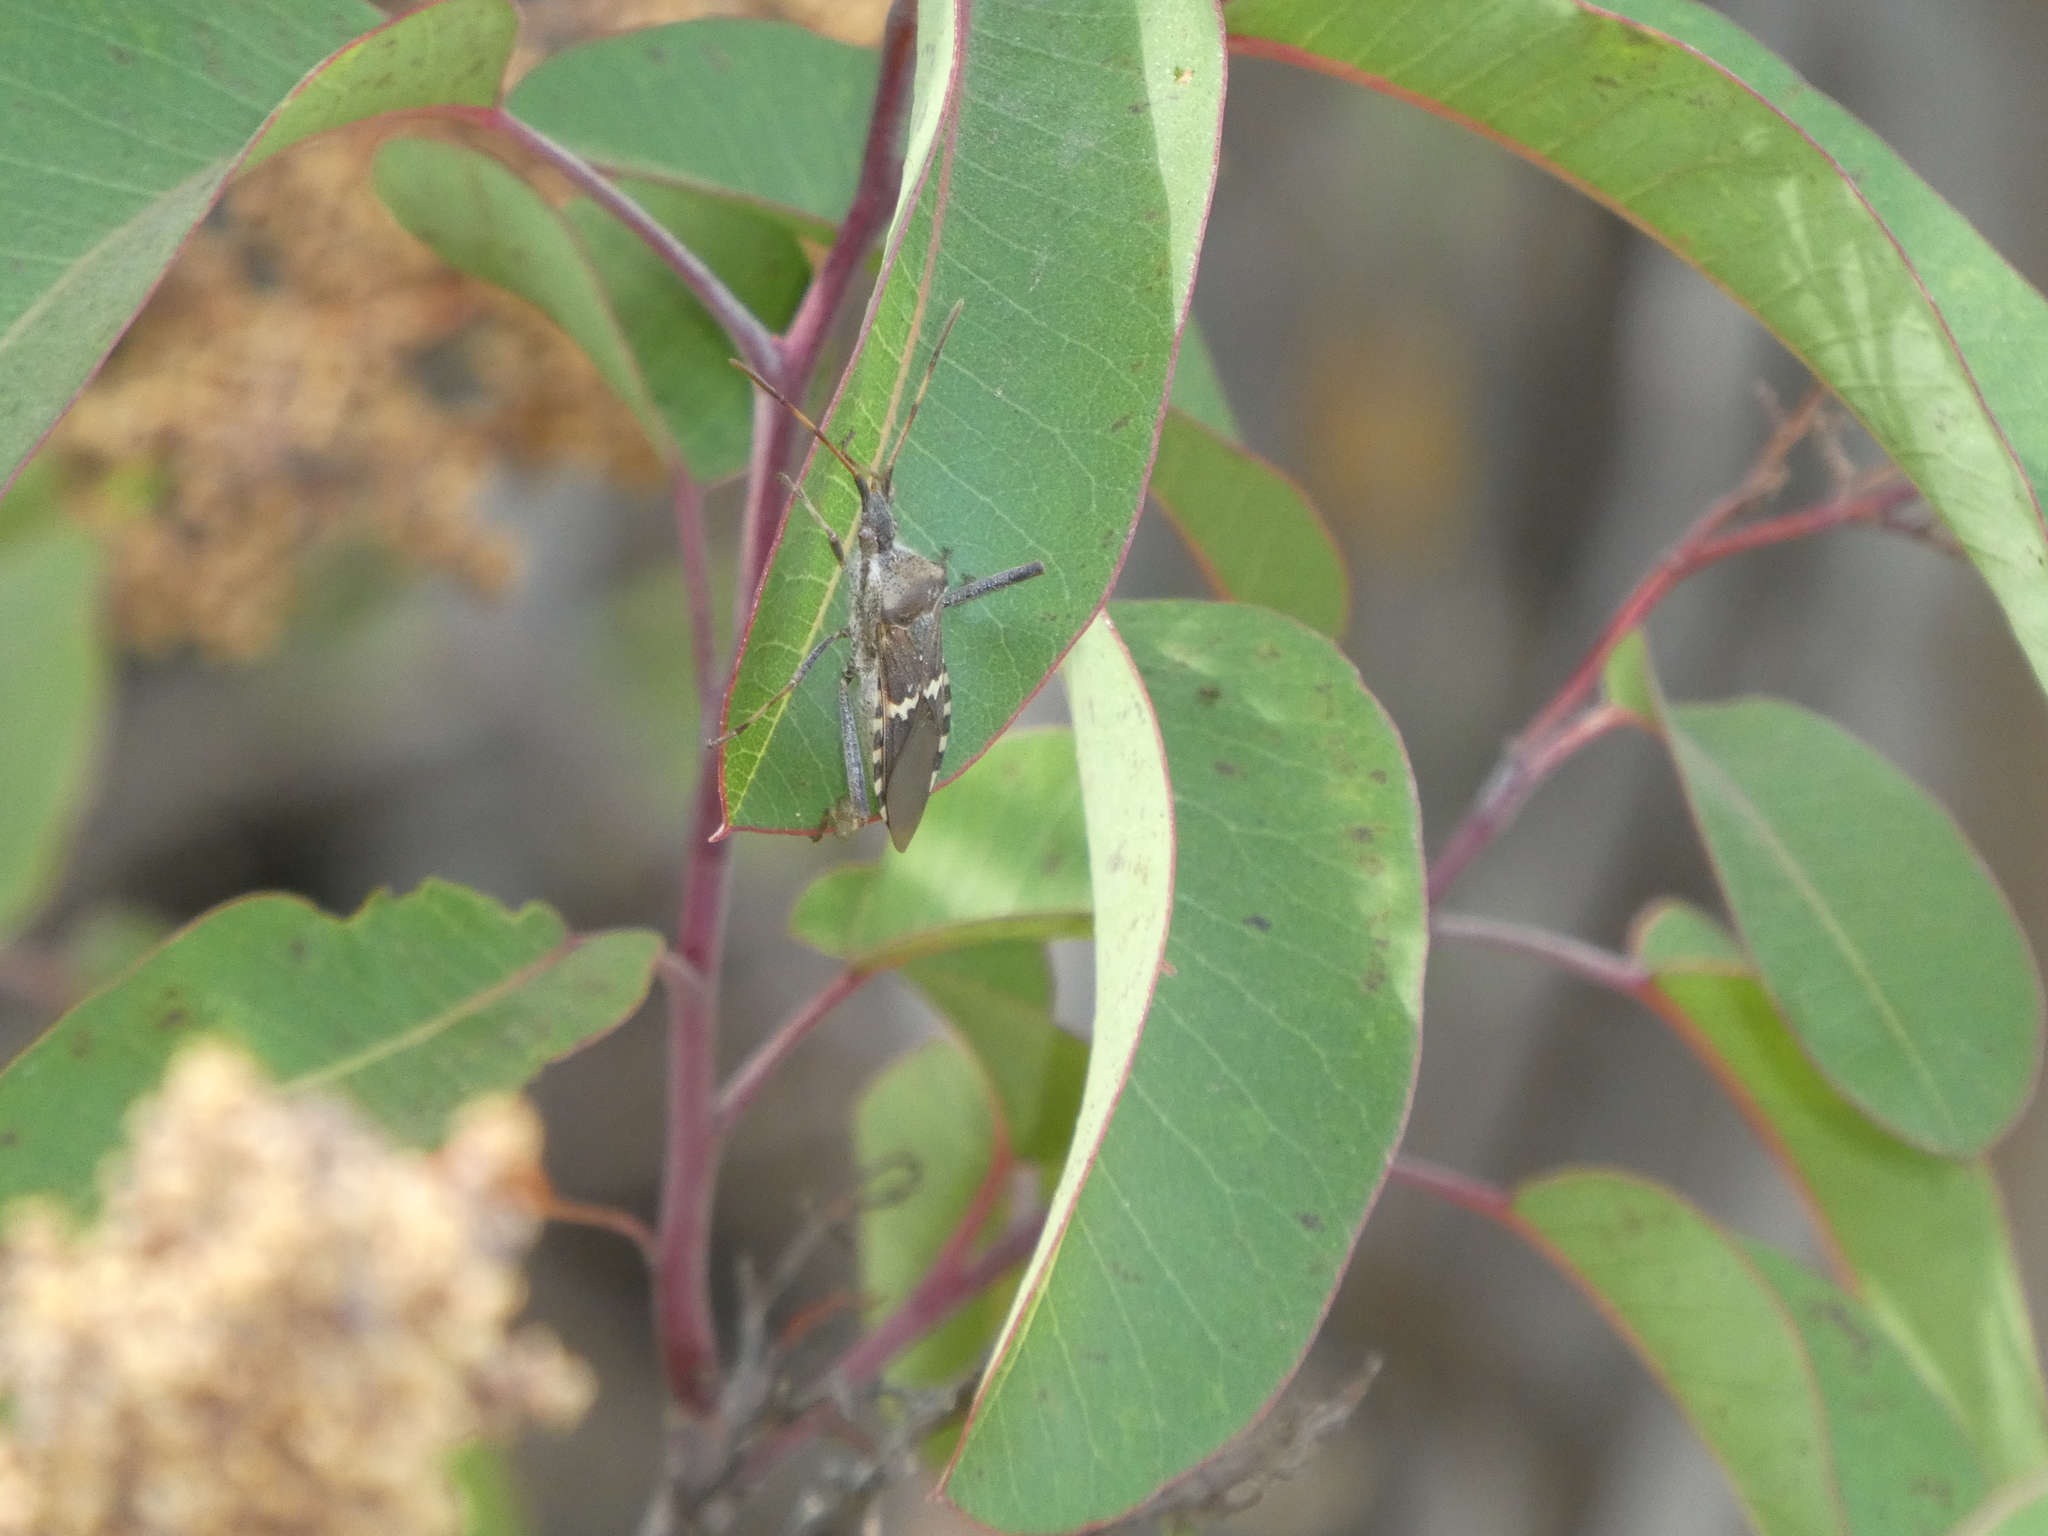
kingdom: Animalia
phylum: Arthropoda
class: Insecta
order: Hemiptera
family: Coreidae
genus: Leptoglossus
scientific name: Leptoglossus clypealis
